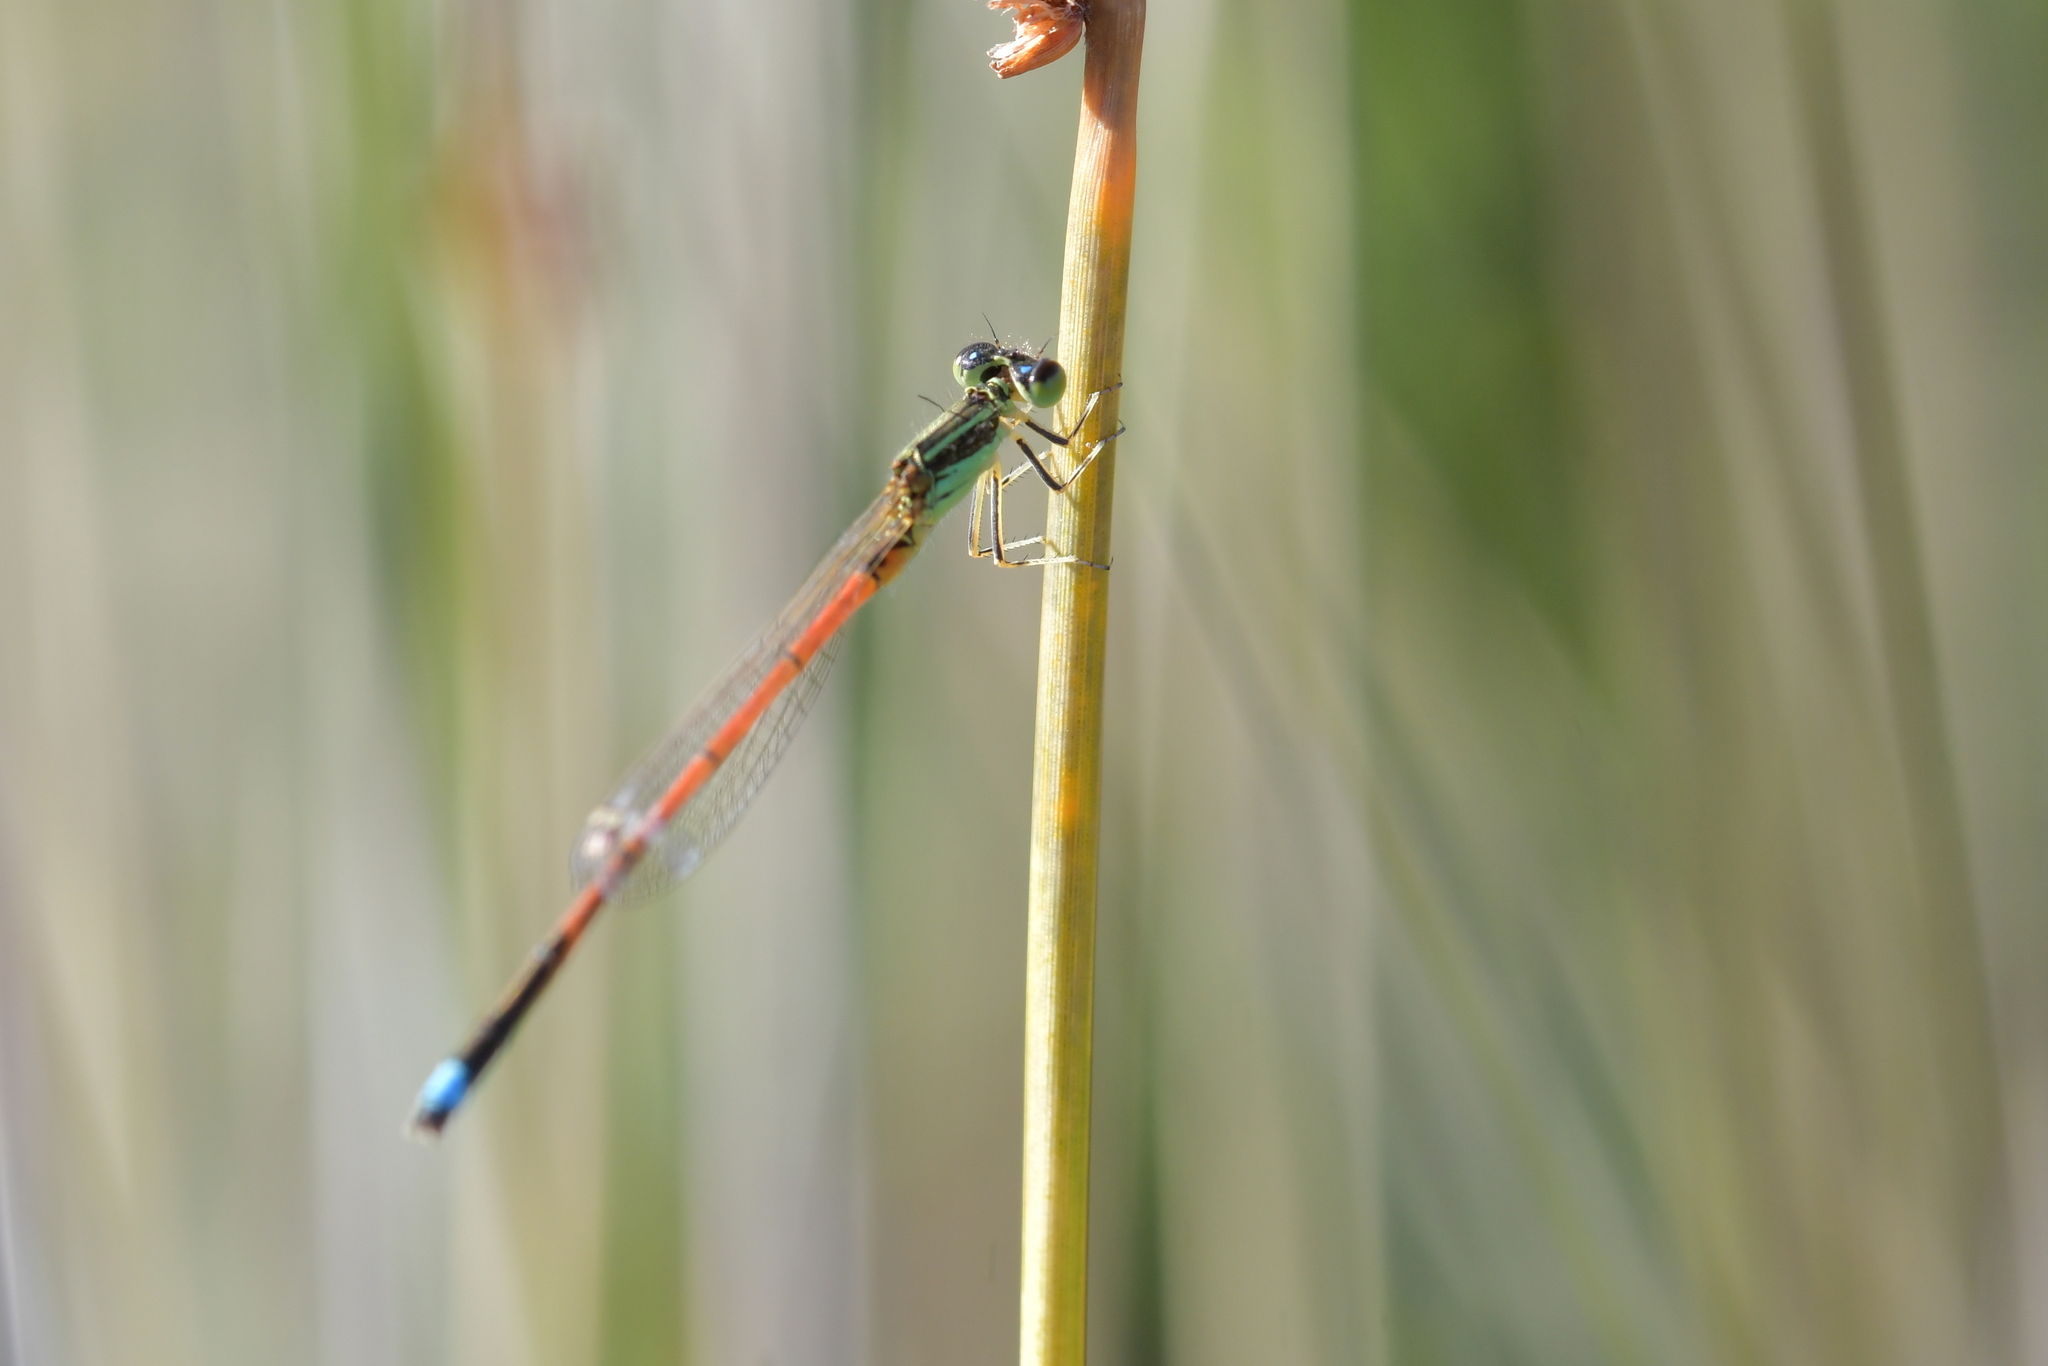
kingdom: Animalia
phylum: Arthropoda
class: Insecta
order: Odonata
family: Coenagrionidae
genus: Ischnura
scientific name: Ischnura aurora
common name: Gossamer damselfly
